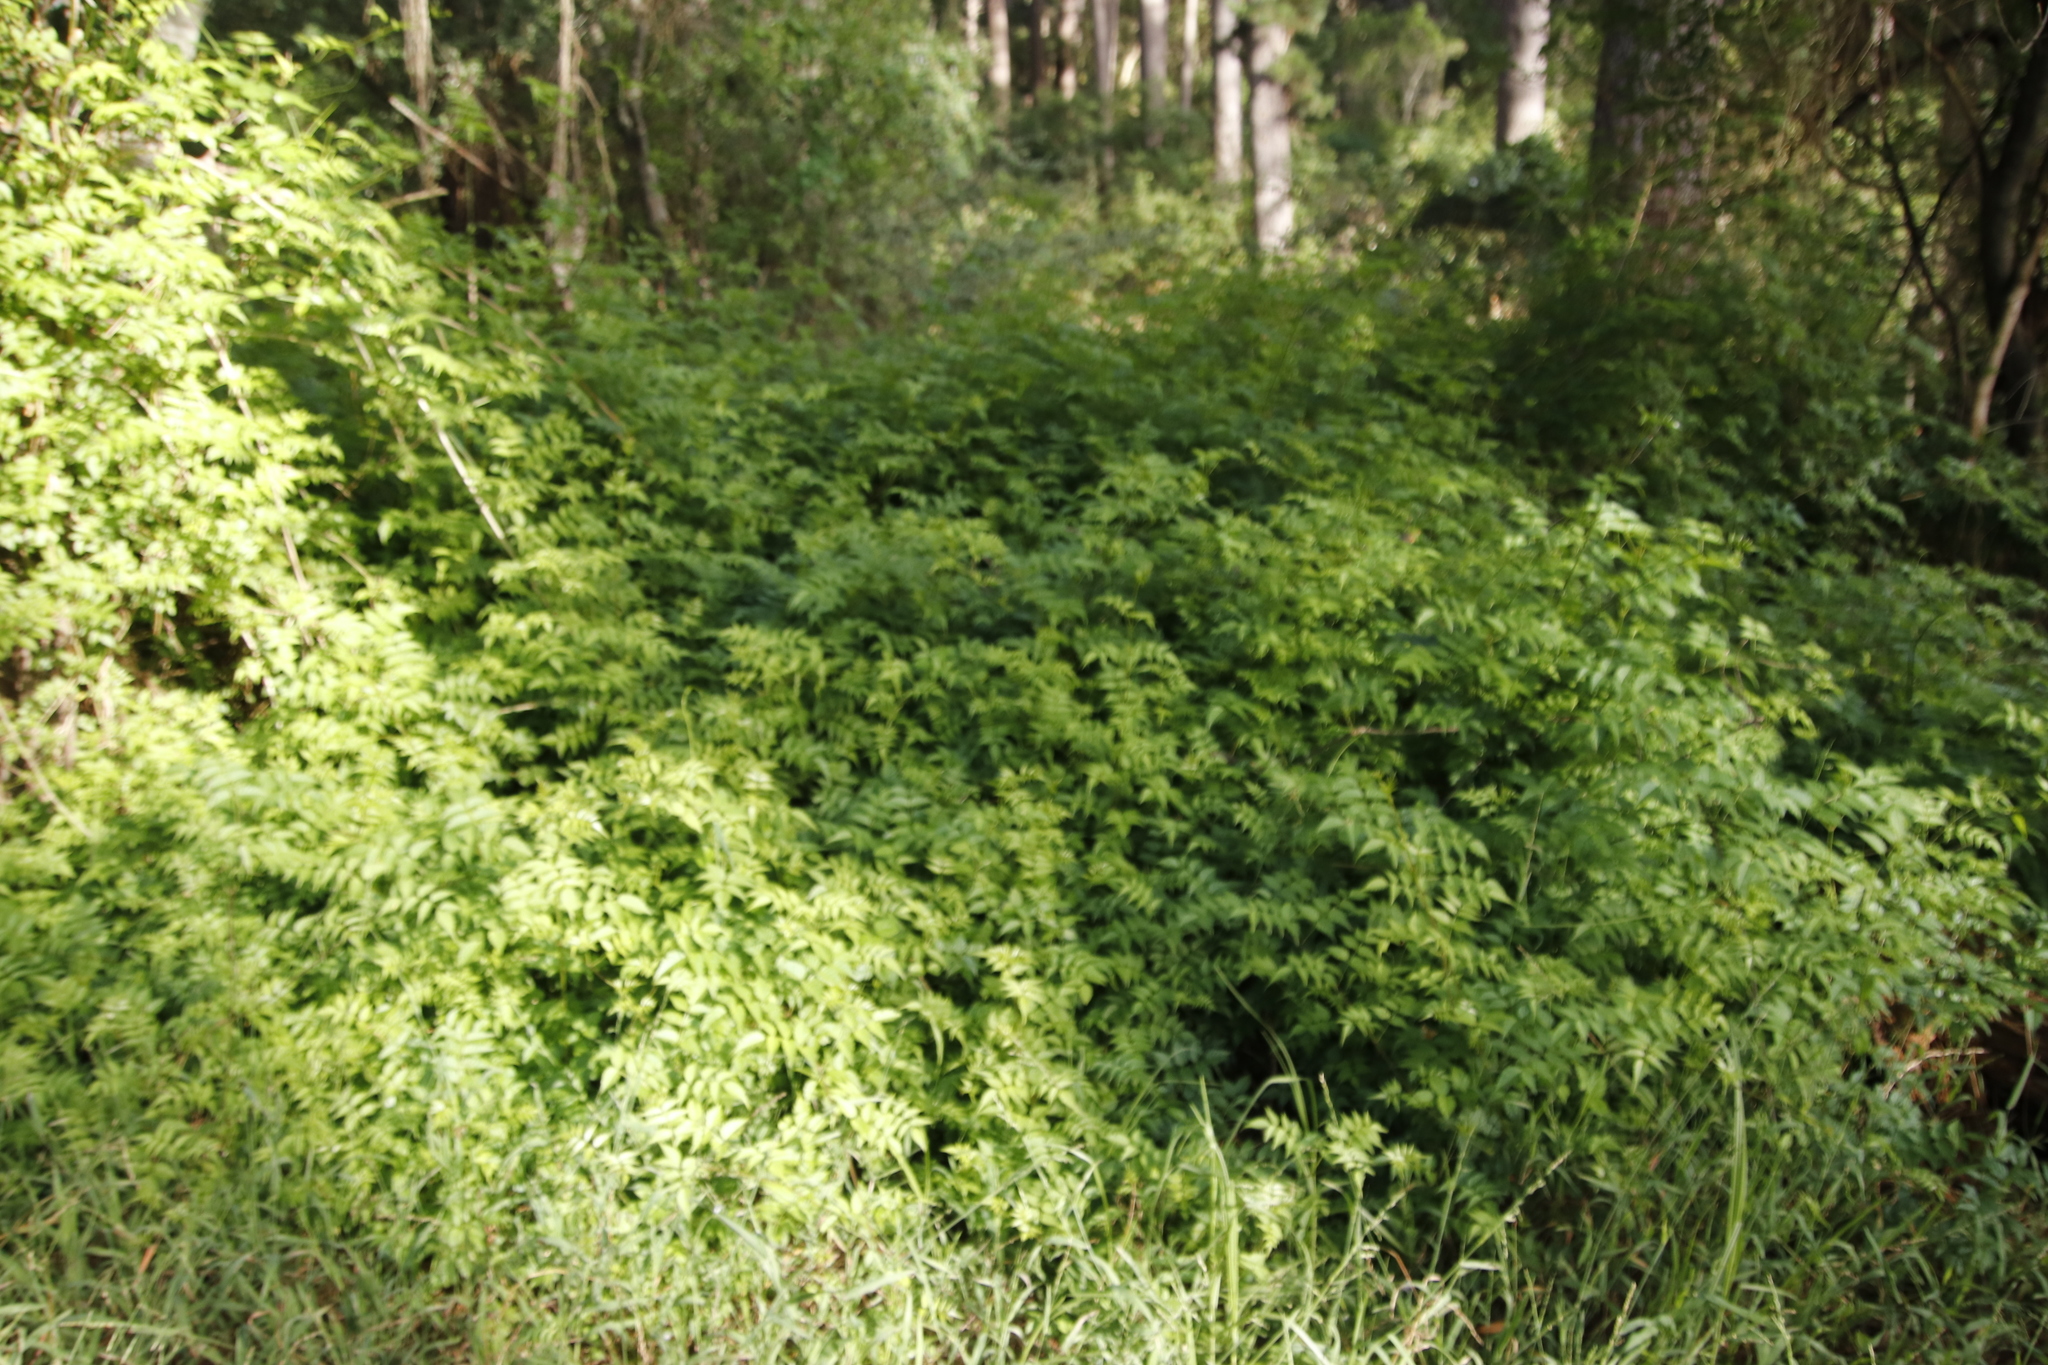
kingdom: Plantae
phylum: Tracheophyta
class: Magnoliopsida
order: Lamiales
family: Bignoniaceae
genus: Tecomaria
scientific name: Tecomaria capensis
